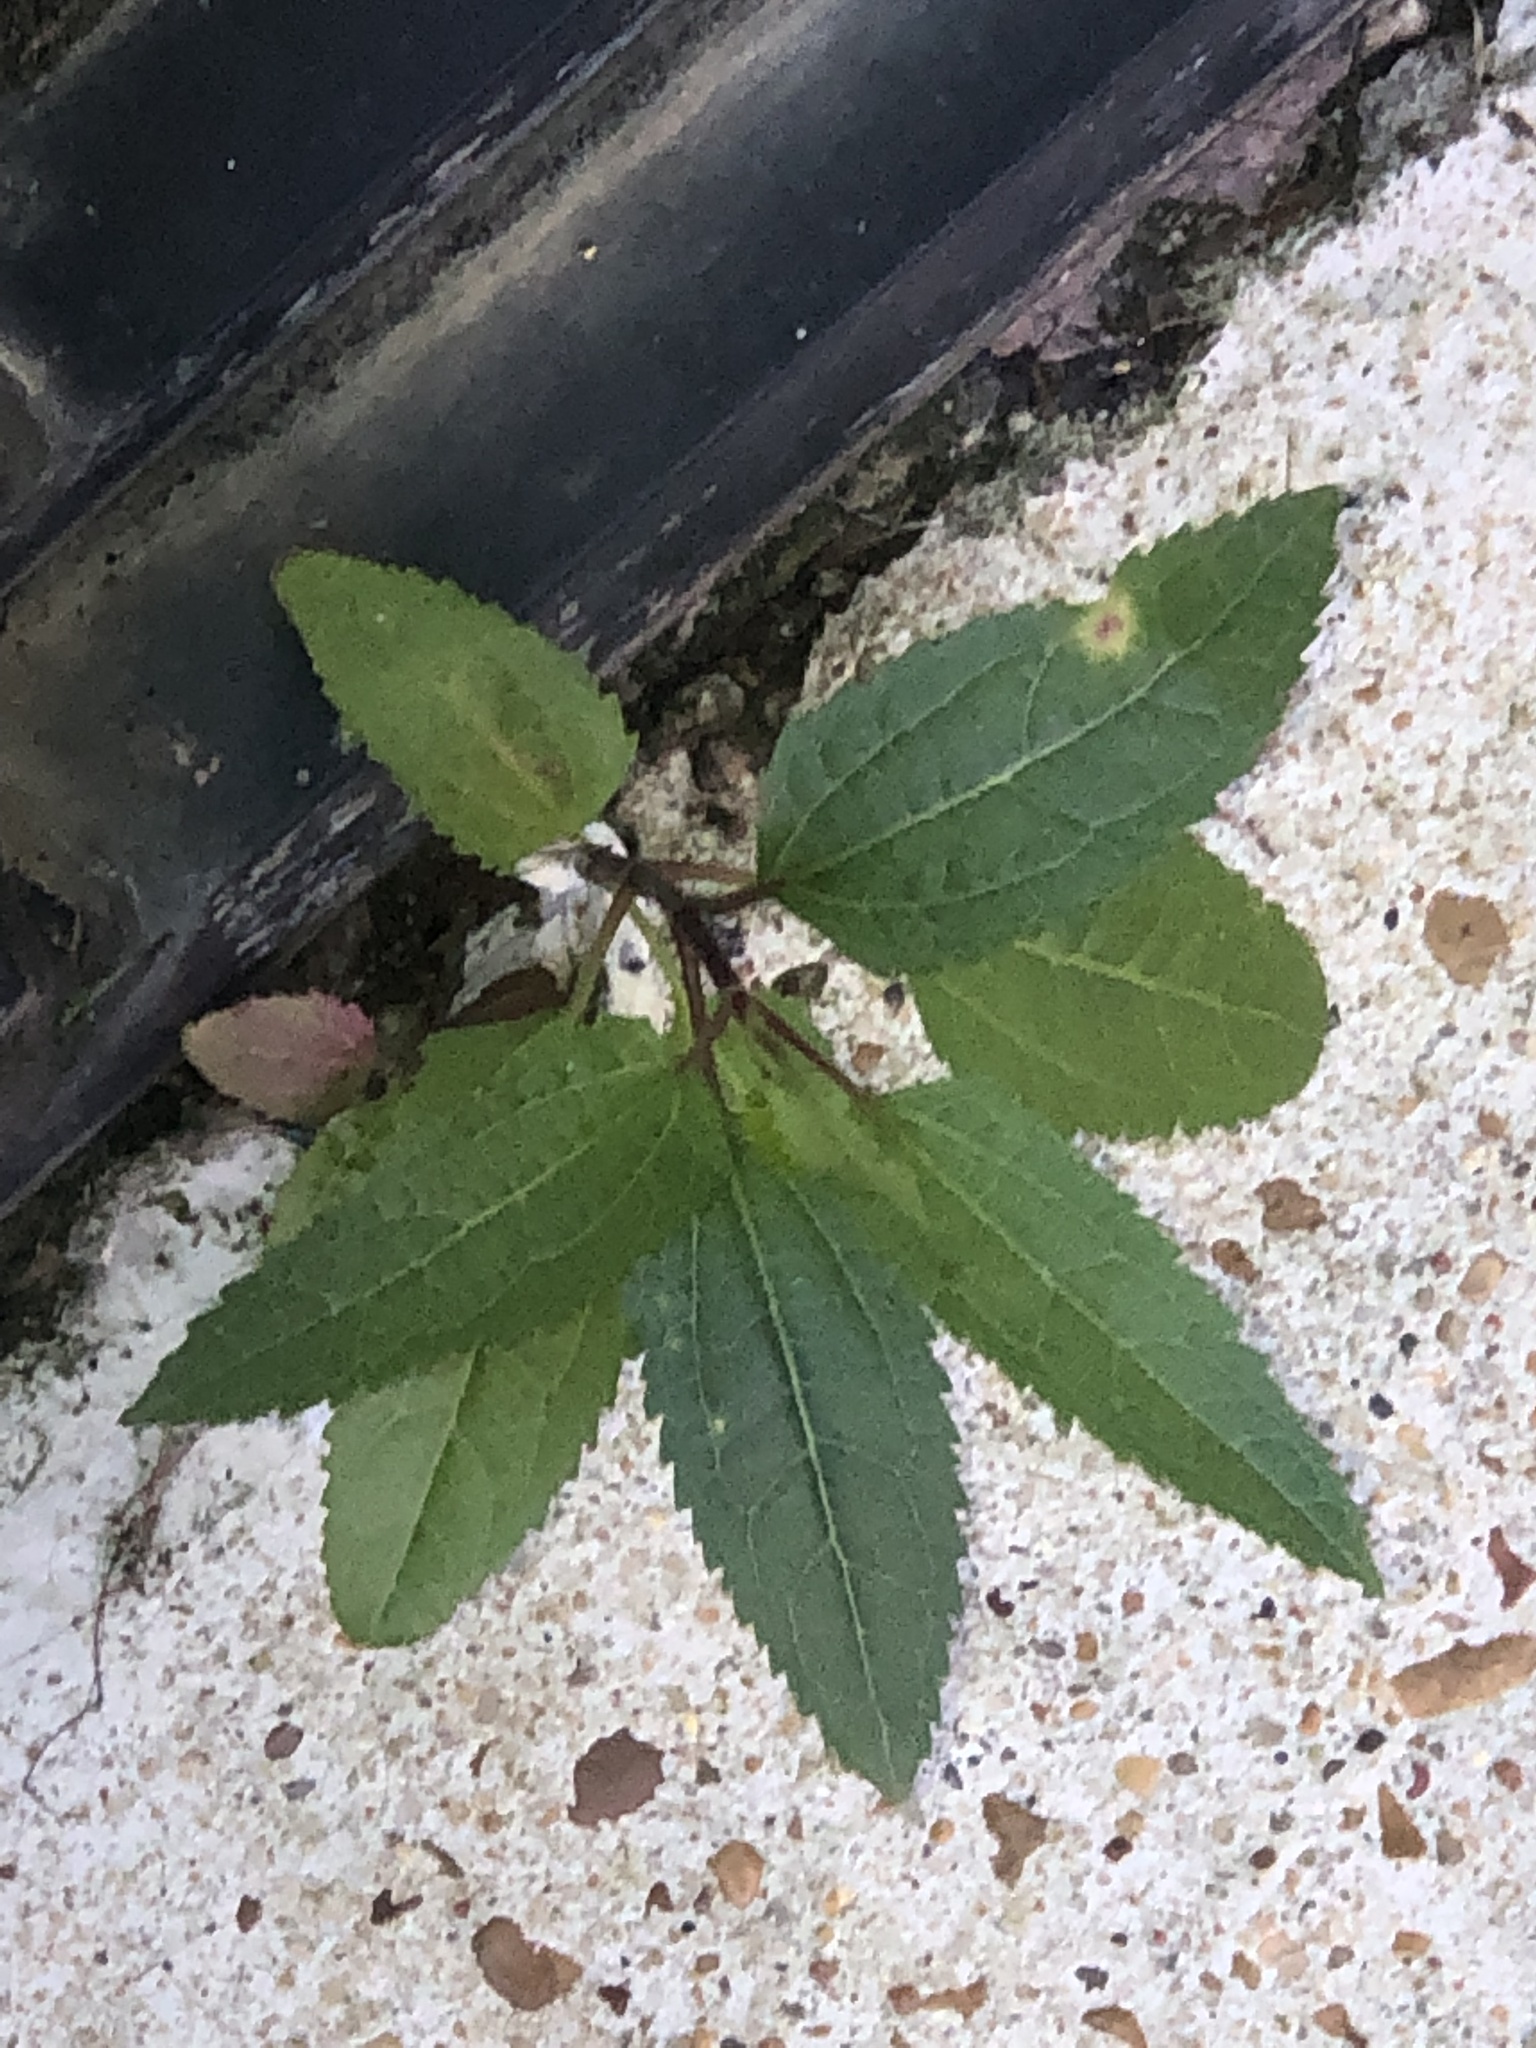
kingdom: Plantae
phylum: Tracheophyta
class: Magnoliopsida
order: Asterales
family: Asteraceae
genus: Eupatorium
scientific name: Eupatorium serotinum
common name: Late boneset
